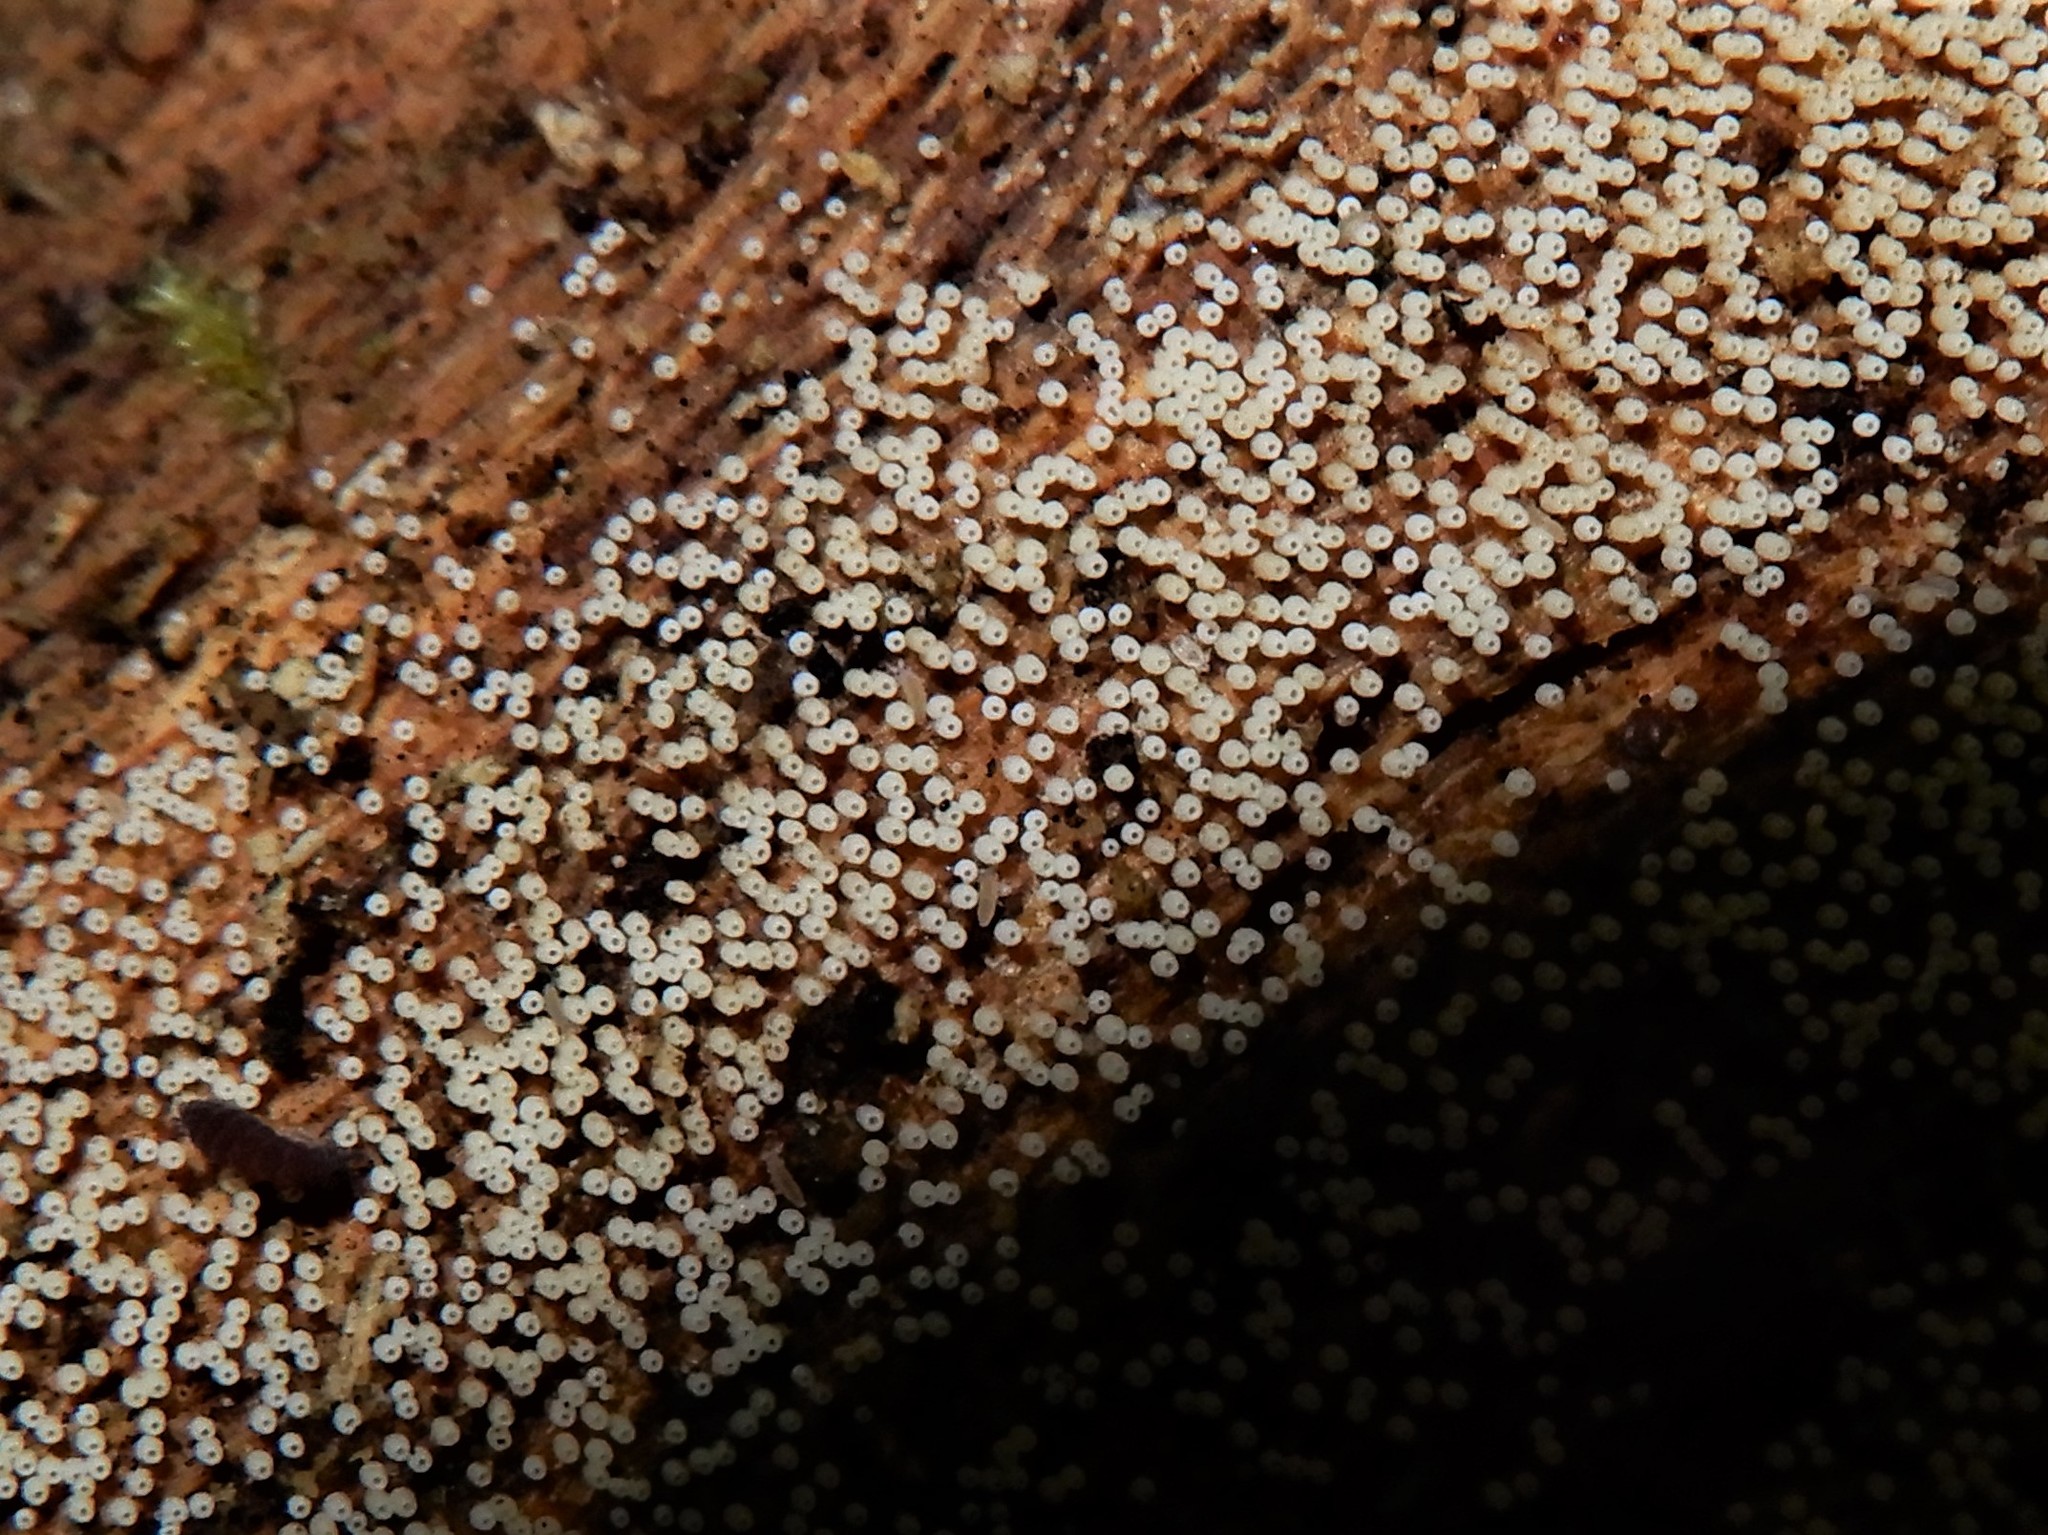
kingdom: Fungi
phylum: Basidiomycota
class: Agaricomycetes
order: Agaricales
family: Marasmiaceae
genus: Henningsomyces
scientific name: Henningsomyces candidus
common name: White tubelet
